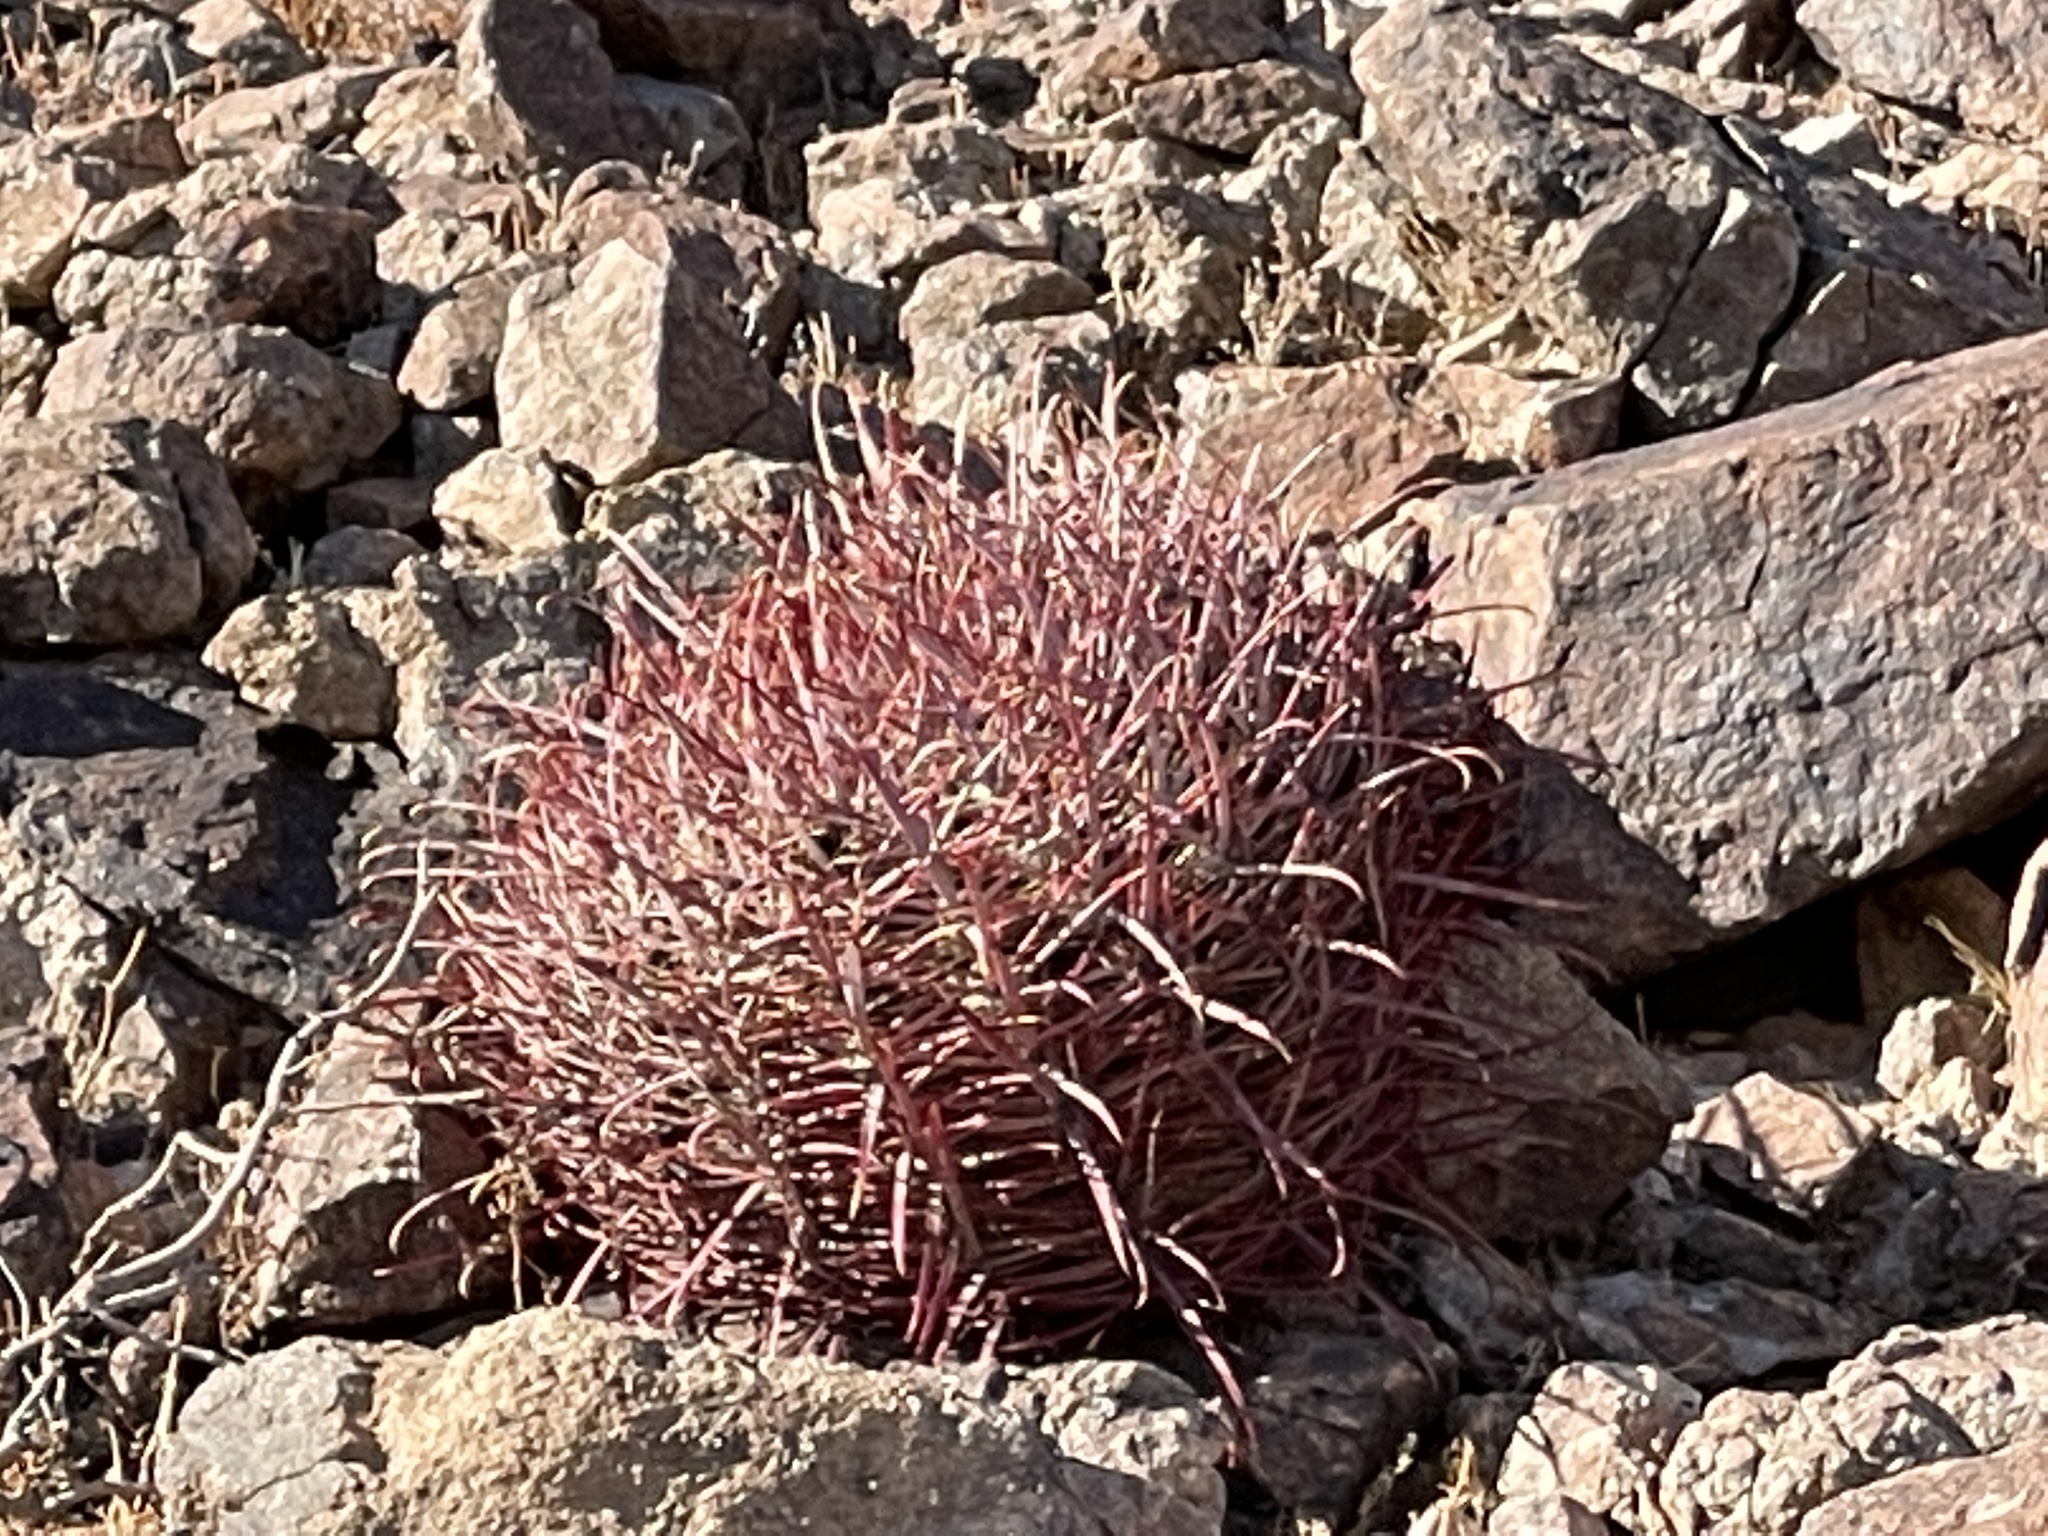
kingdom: Plantae
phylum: Tracheophyta
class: Magnoliopsida
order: Caryophyllales
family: Cactaceae
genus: Ferocactus
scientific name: Ferocactus cylindraceus
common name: California barrel cactus
